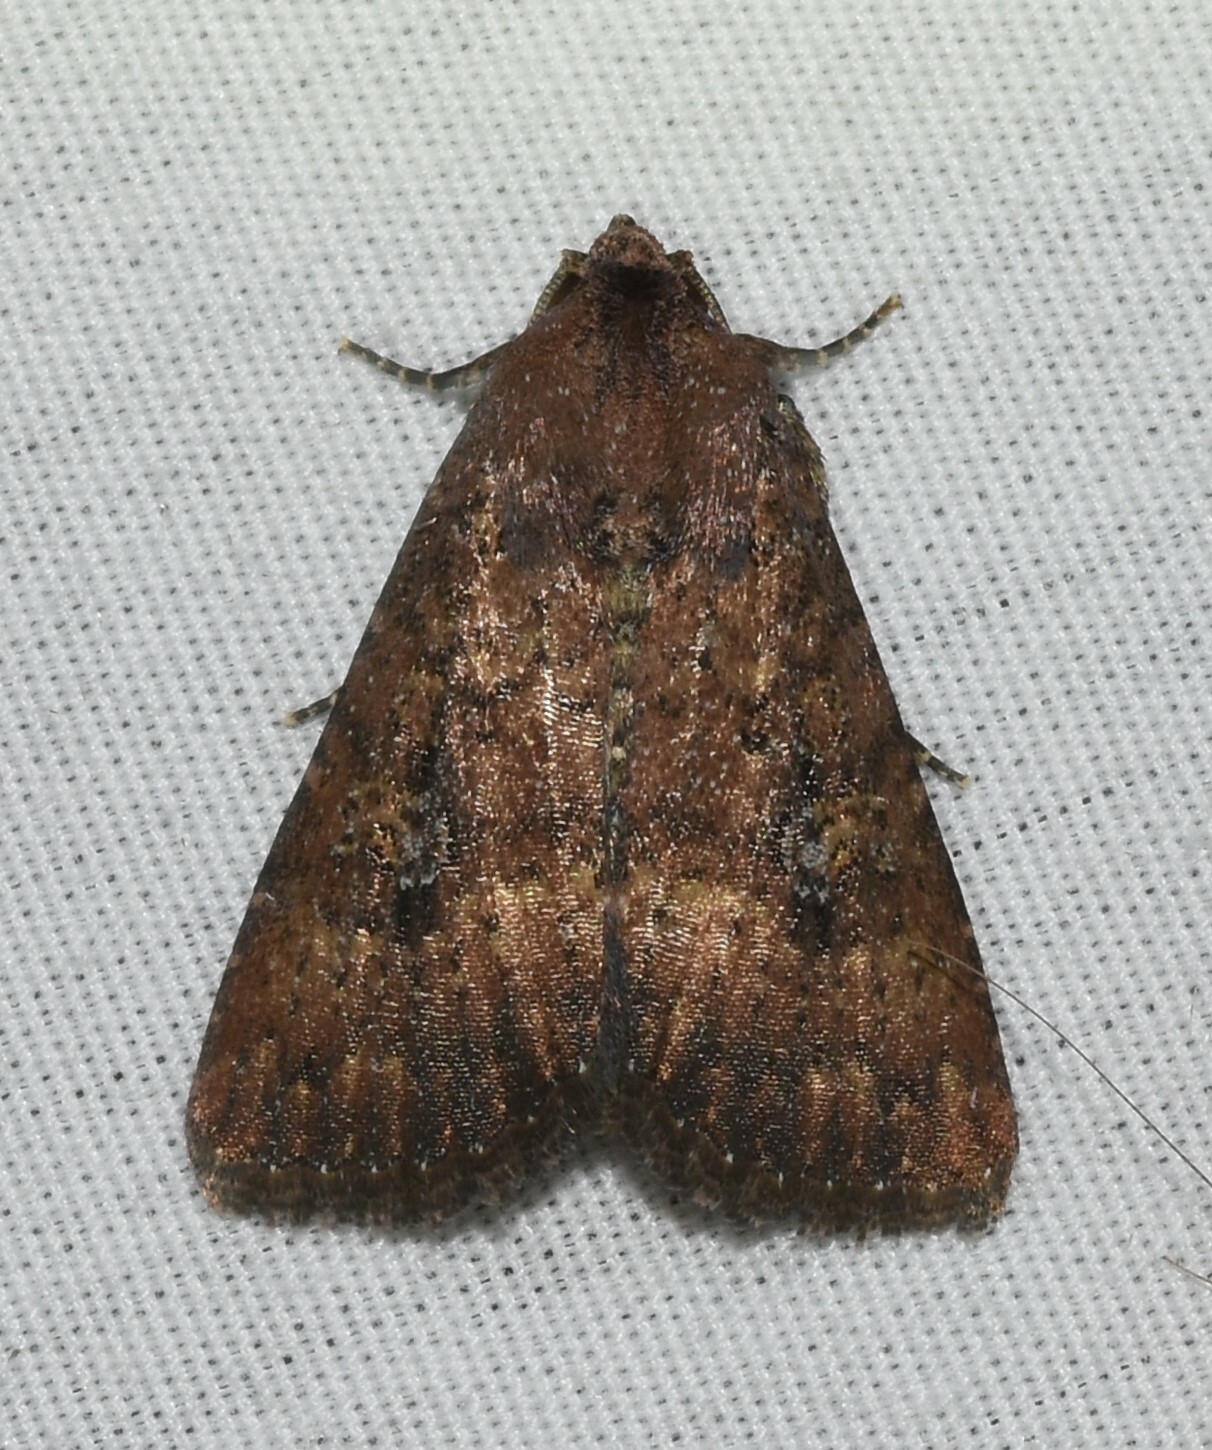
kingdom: Animalia
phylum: Arthropoda
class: Insecta
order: Lepidoptera
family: Noctuidae
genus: Condica
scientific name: Condica sutor
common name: Cobbler moth
